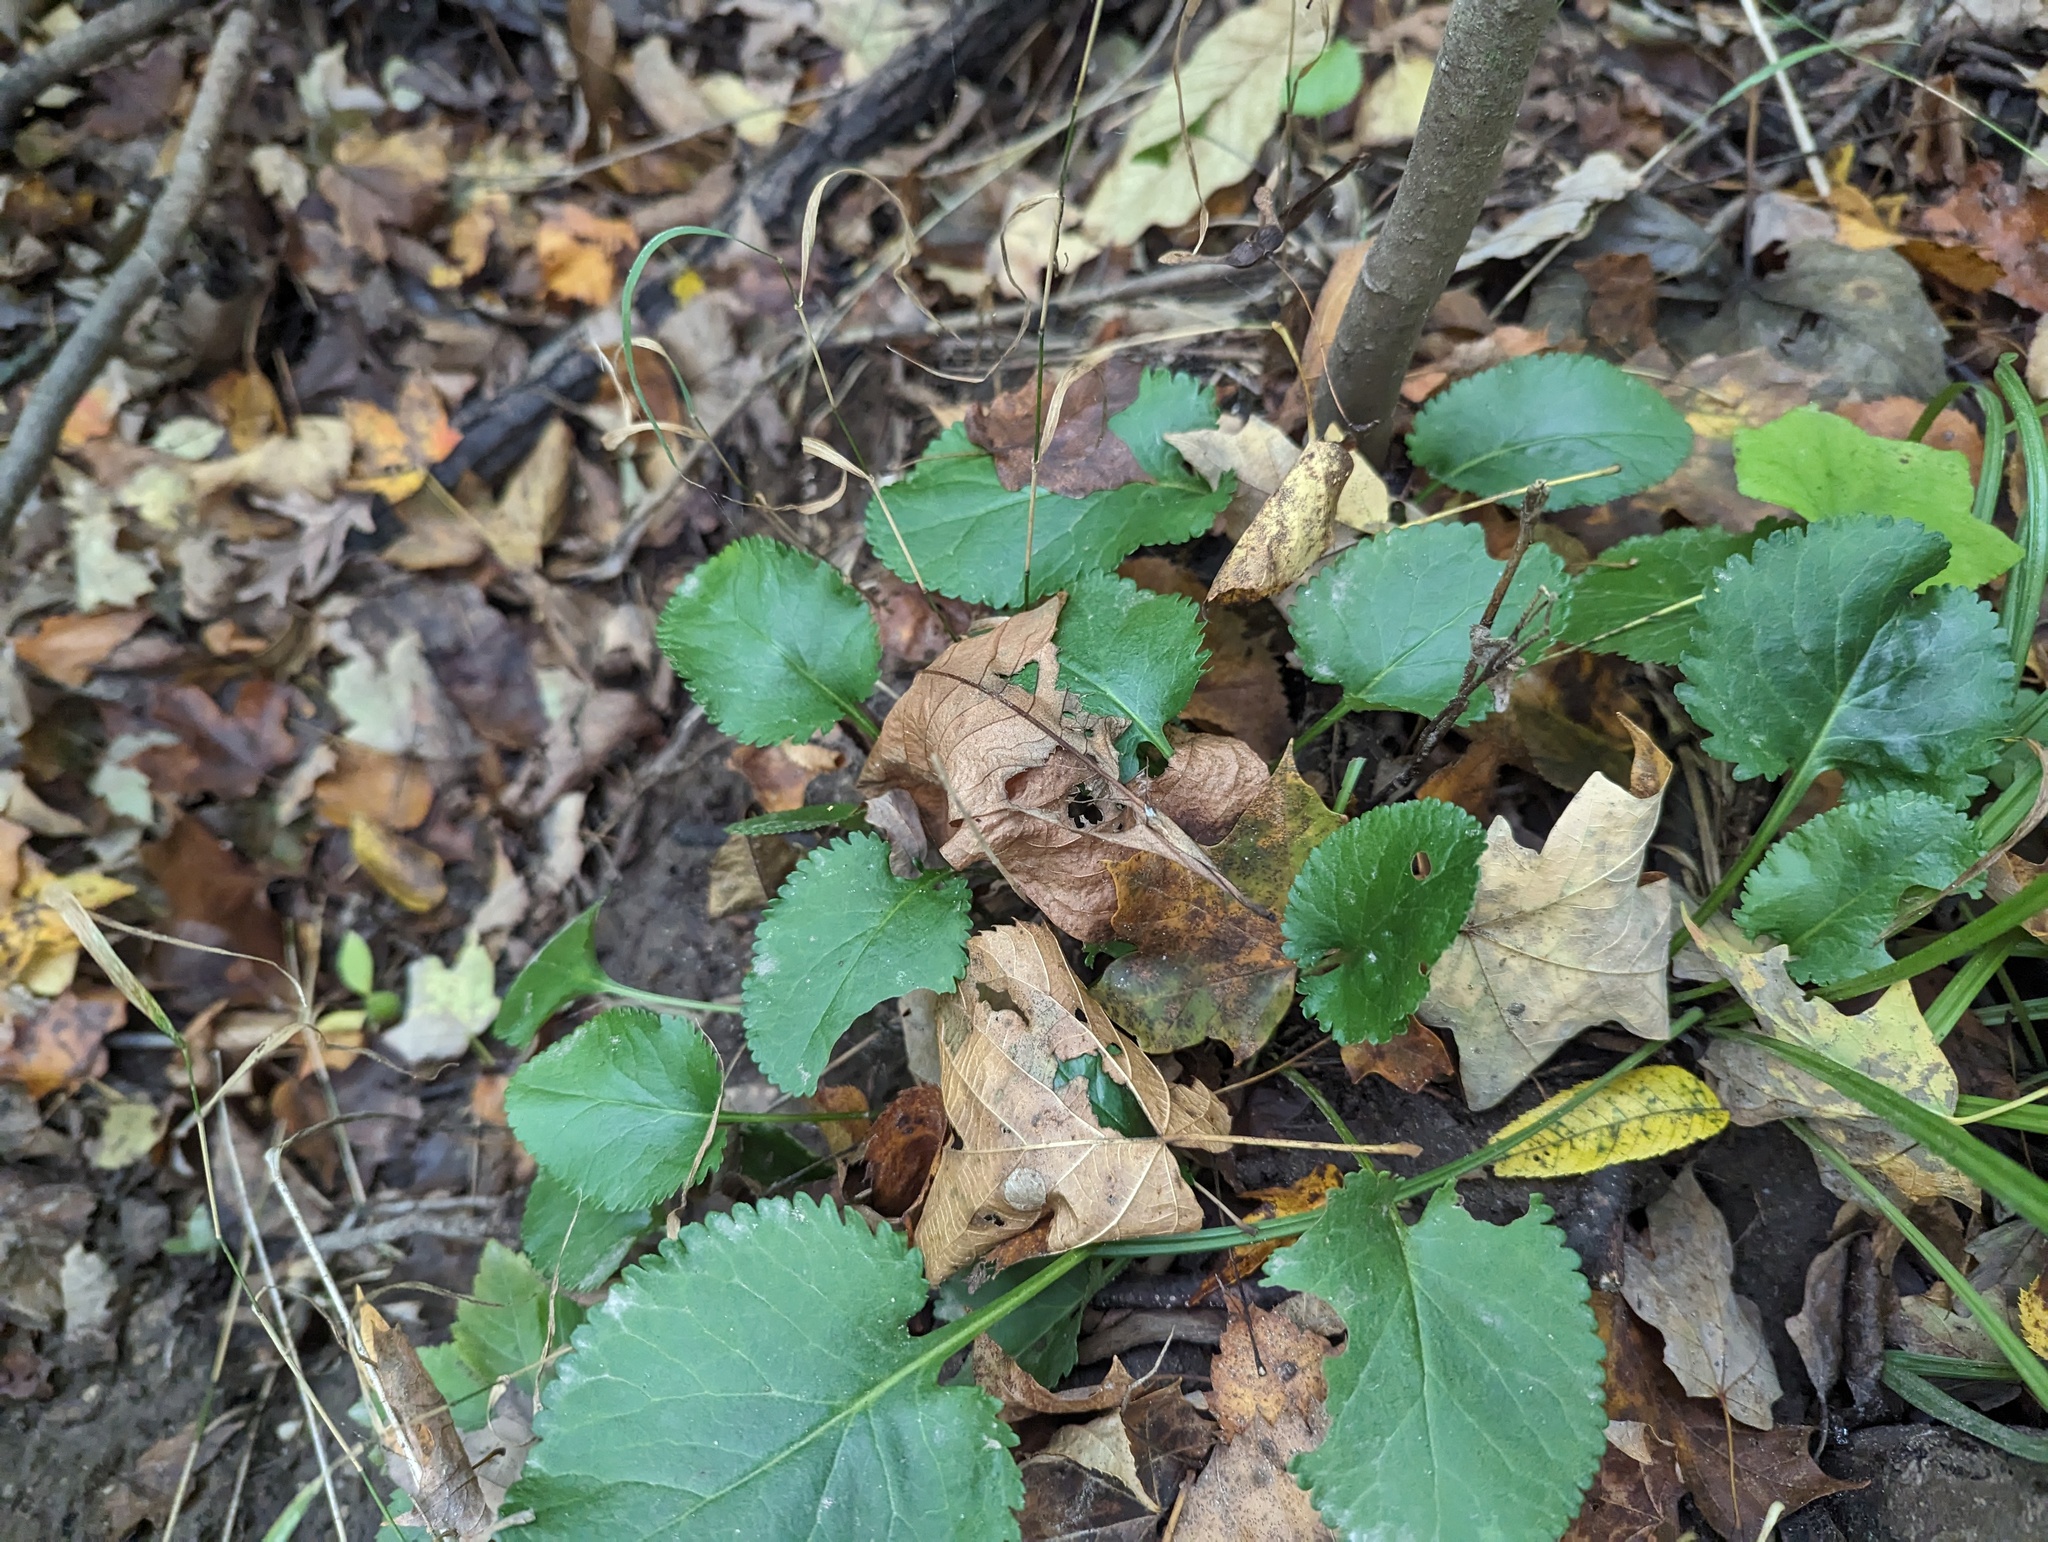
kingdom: Plantae
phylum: Tracheophyta
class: Magnoliopsida
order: Asterales
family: Asteraceae
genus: Packera
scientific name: Packera aurea
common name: Golden groundsel
